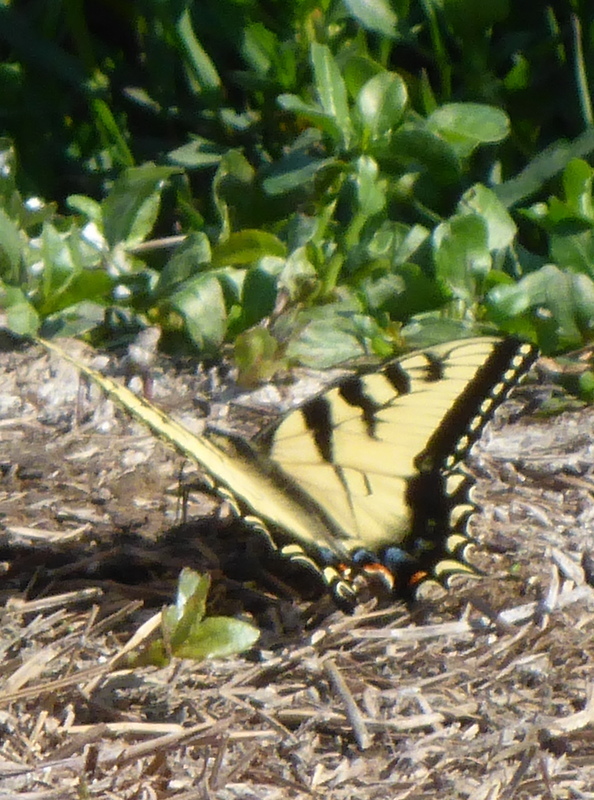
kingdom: Animalia
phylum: Arthropoda
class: Insecta
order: Lepidoptera
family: Papilionidae
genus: Papilio
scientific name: Papilio glaucus
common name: Tiger swallowtail
